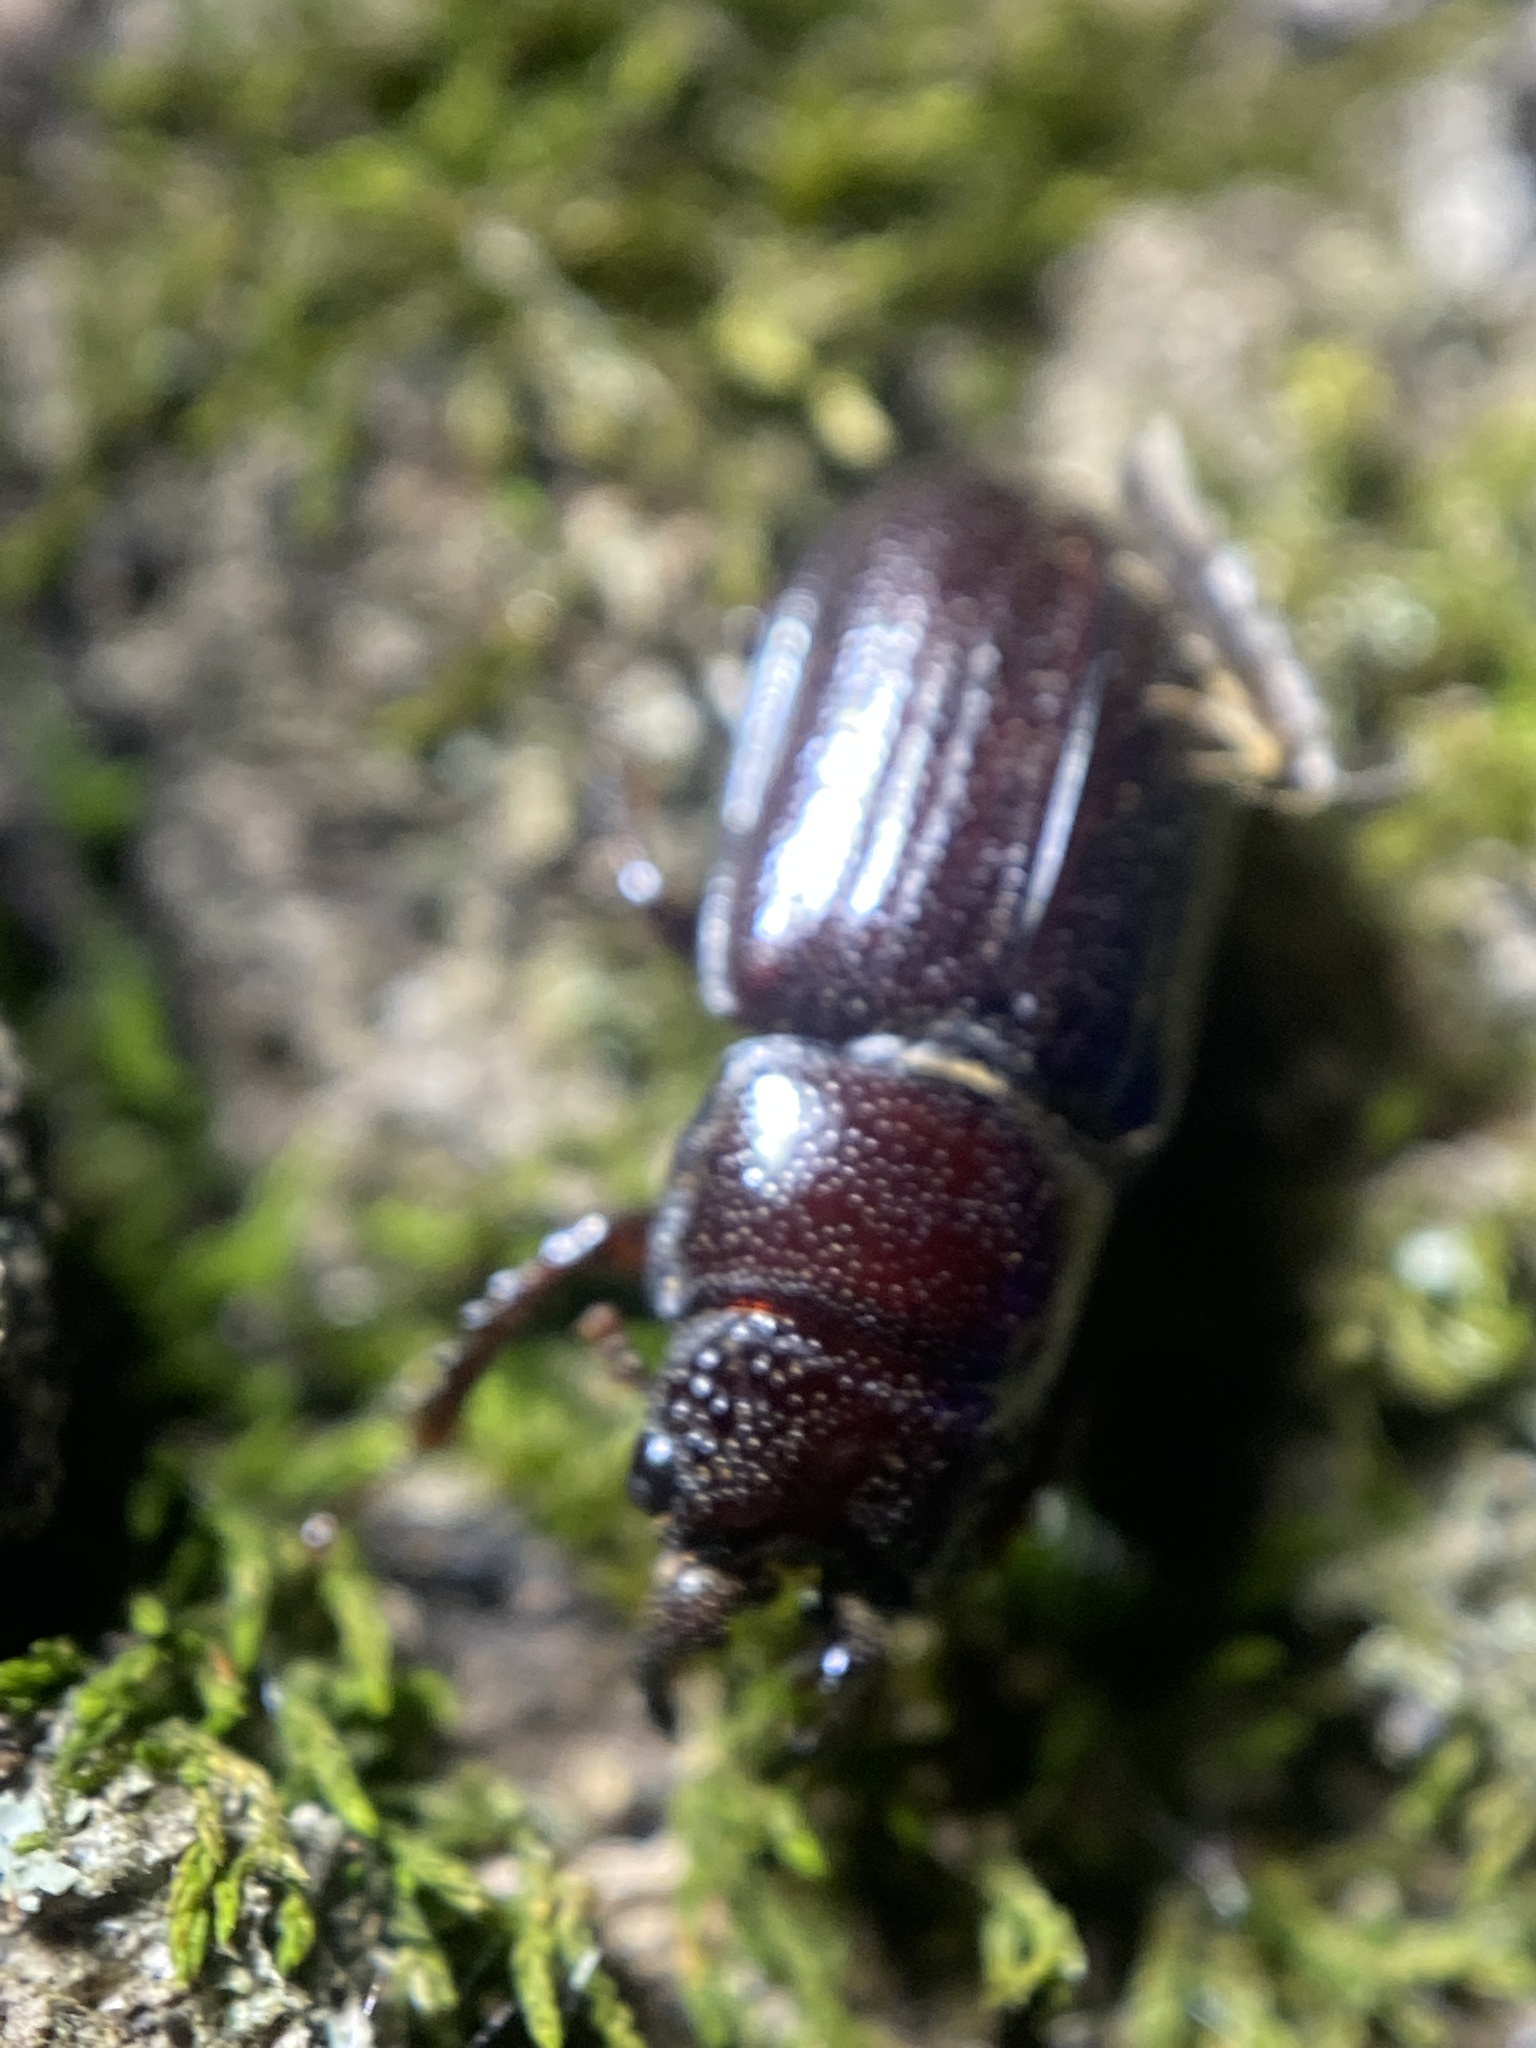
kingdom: Animalia
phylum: Arthropoda
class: Insecta
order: Coleoptera
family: Lucanidae
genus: Ceruchus
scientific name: Ceruchus piceus
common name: Red-rot decay stag beetle
